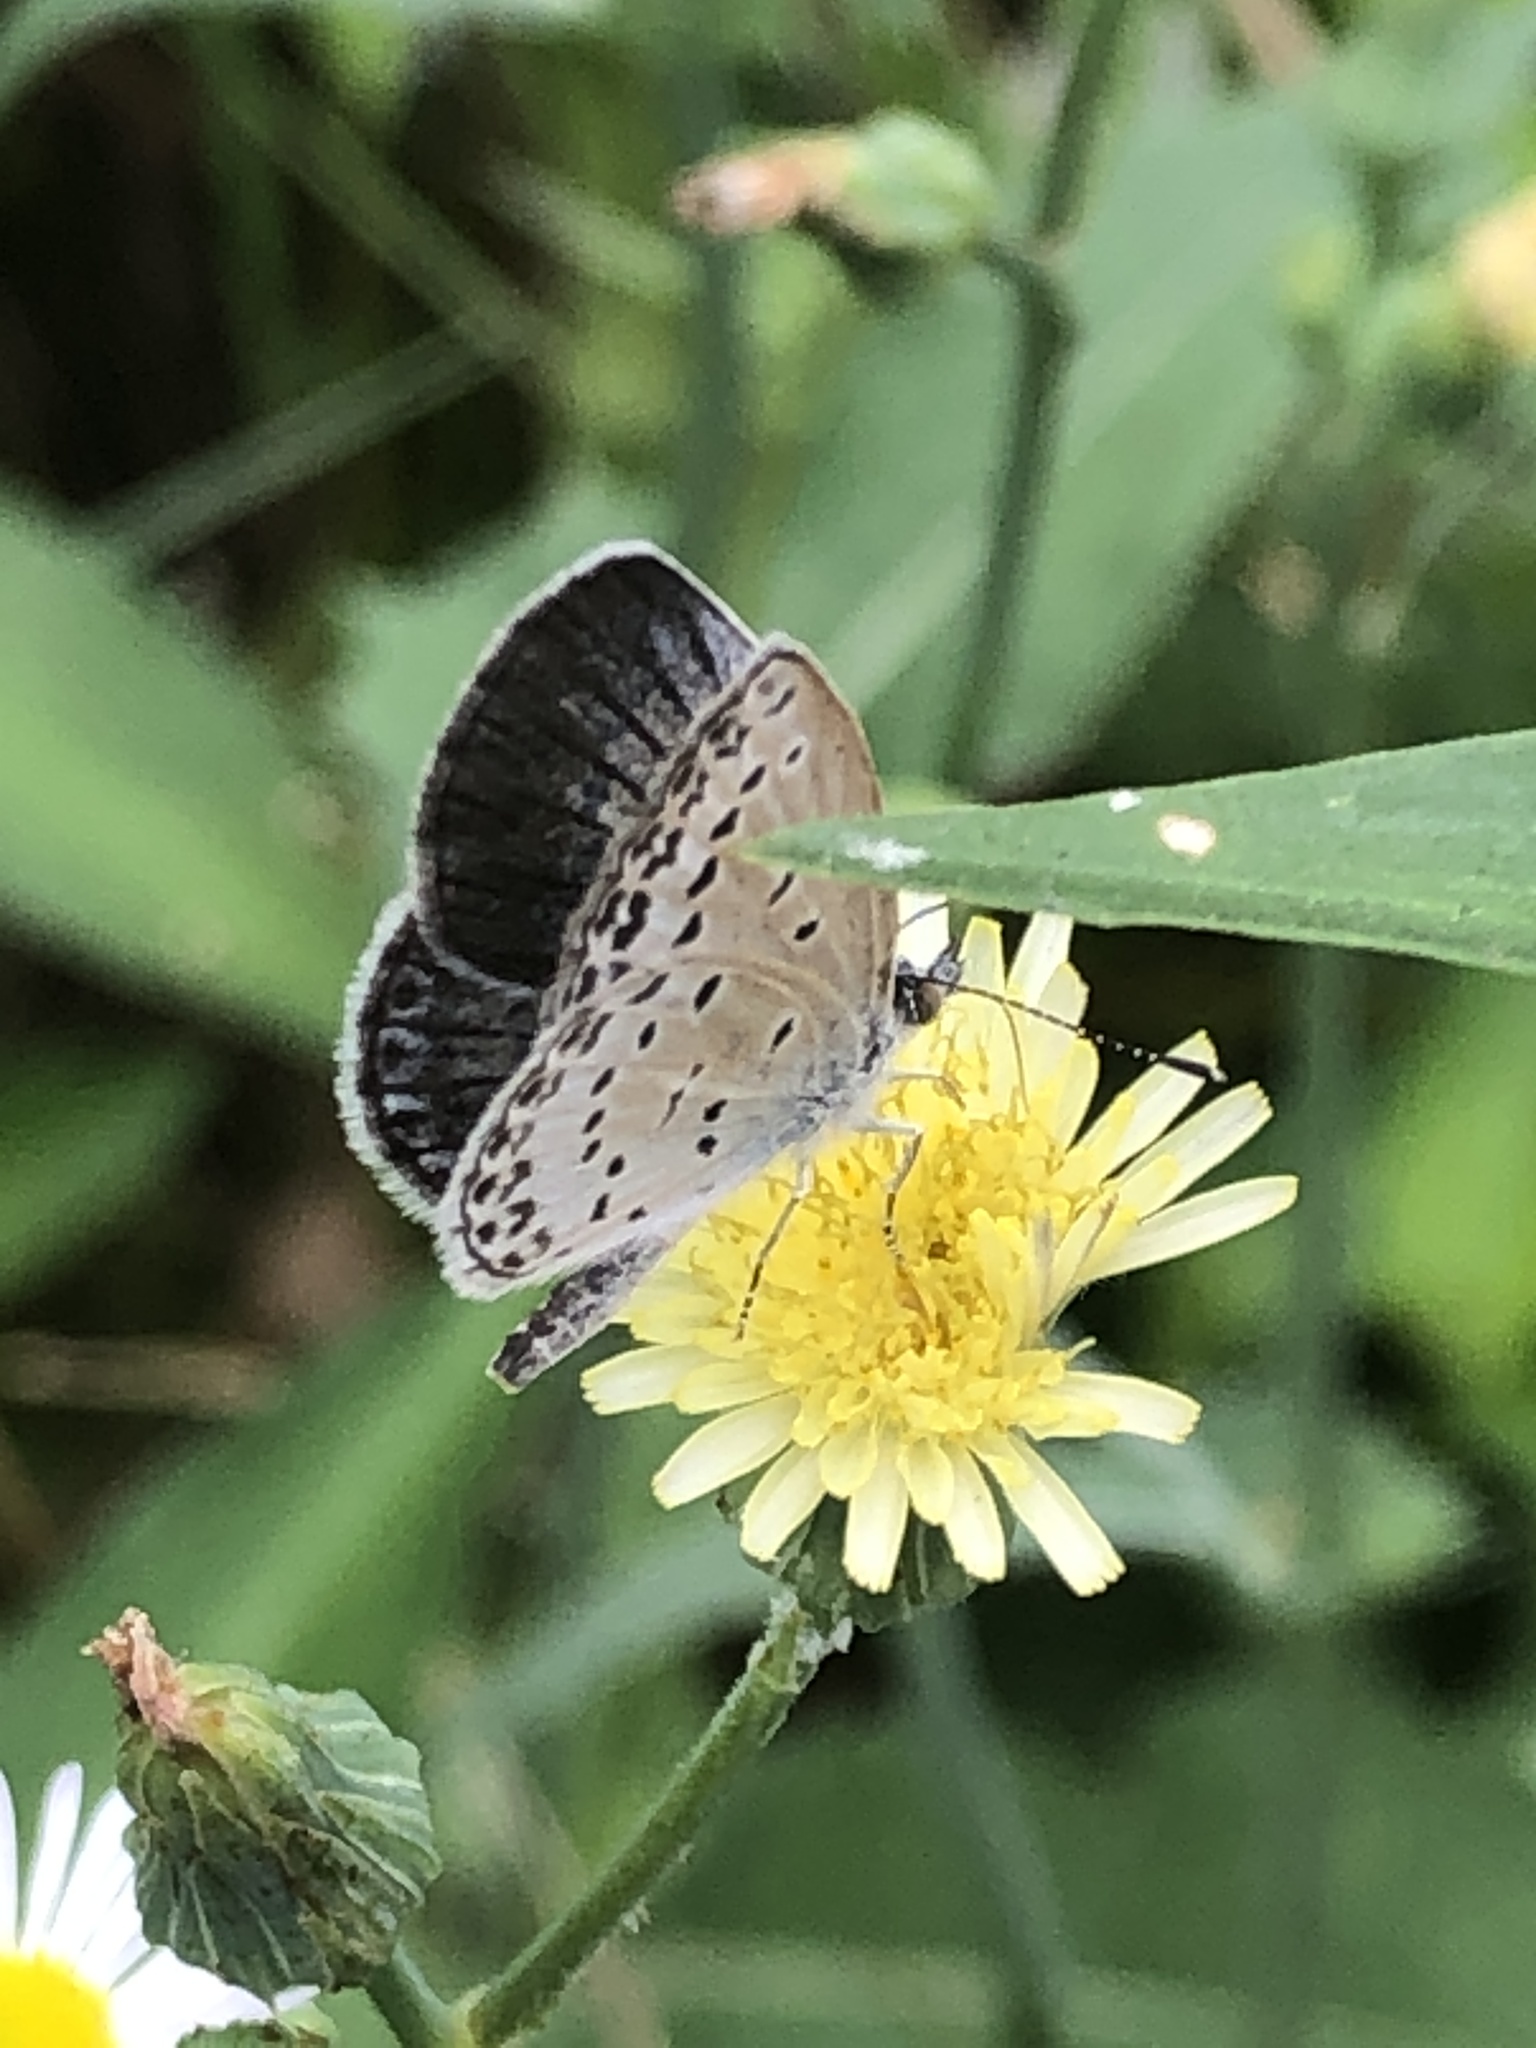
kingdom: Animalia
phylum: Arthropoda
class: Insecta
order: Lepidoptera
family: Lycaenidae
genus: Pseudozizeeria
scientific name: Pseudozizeeria maha
